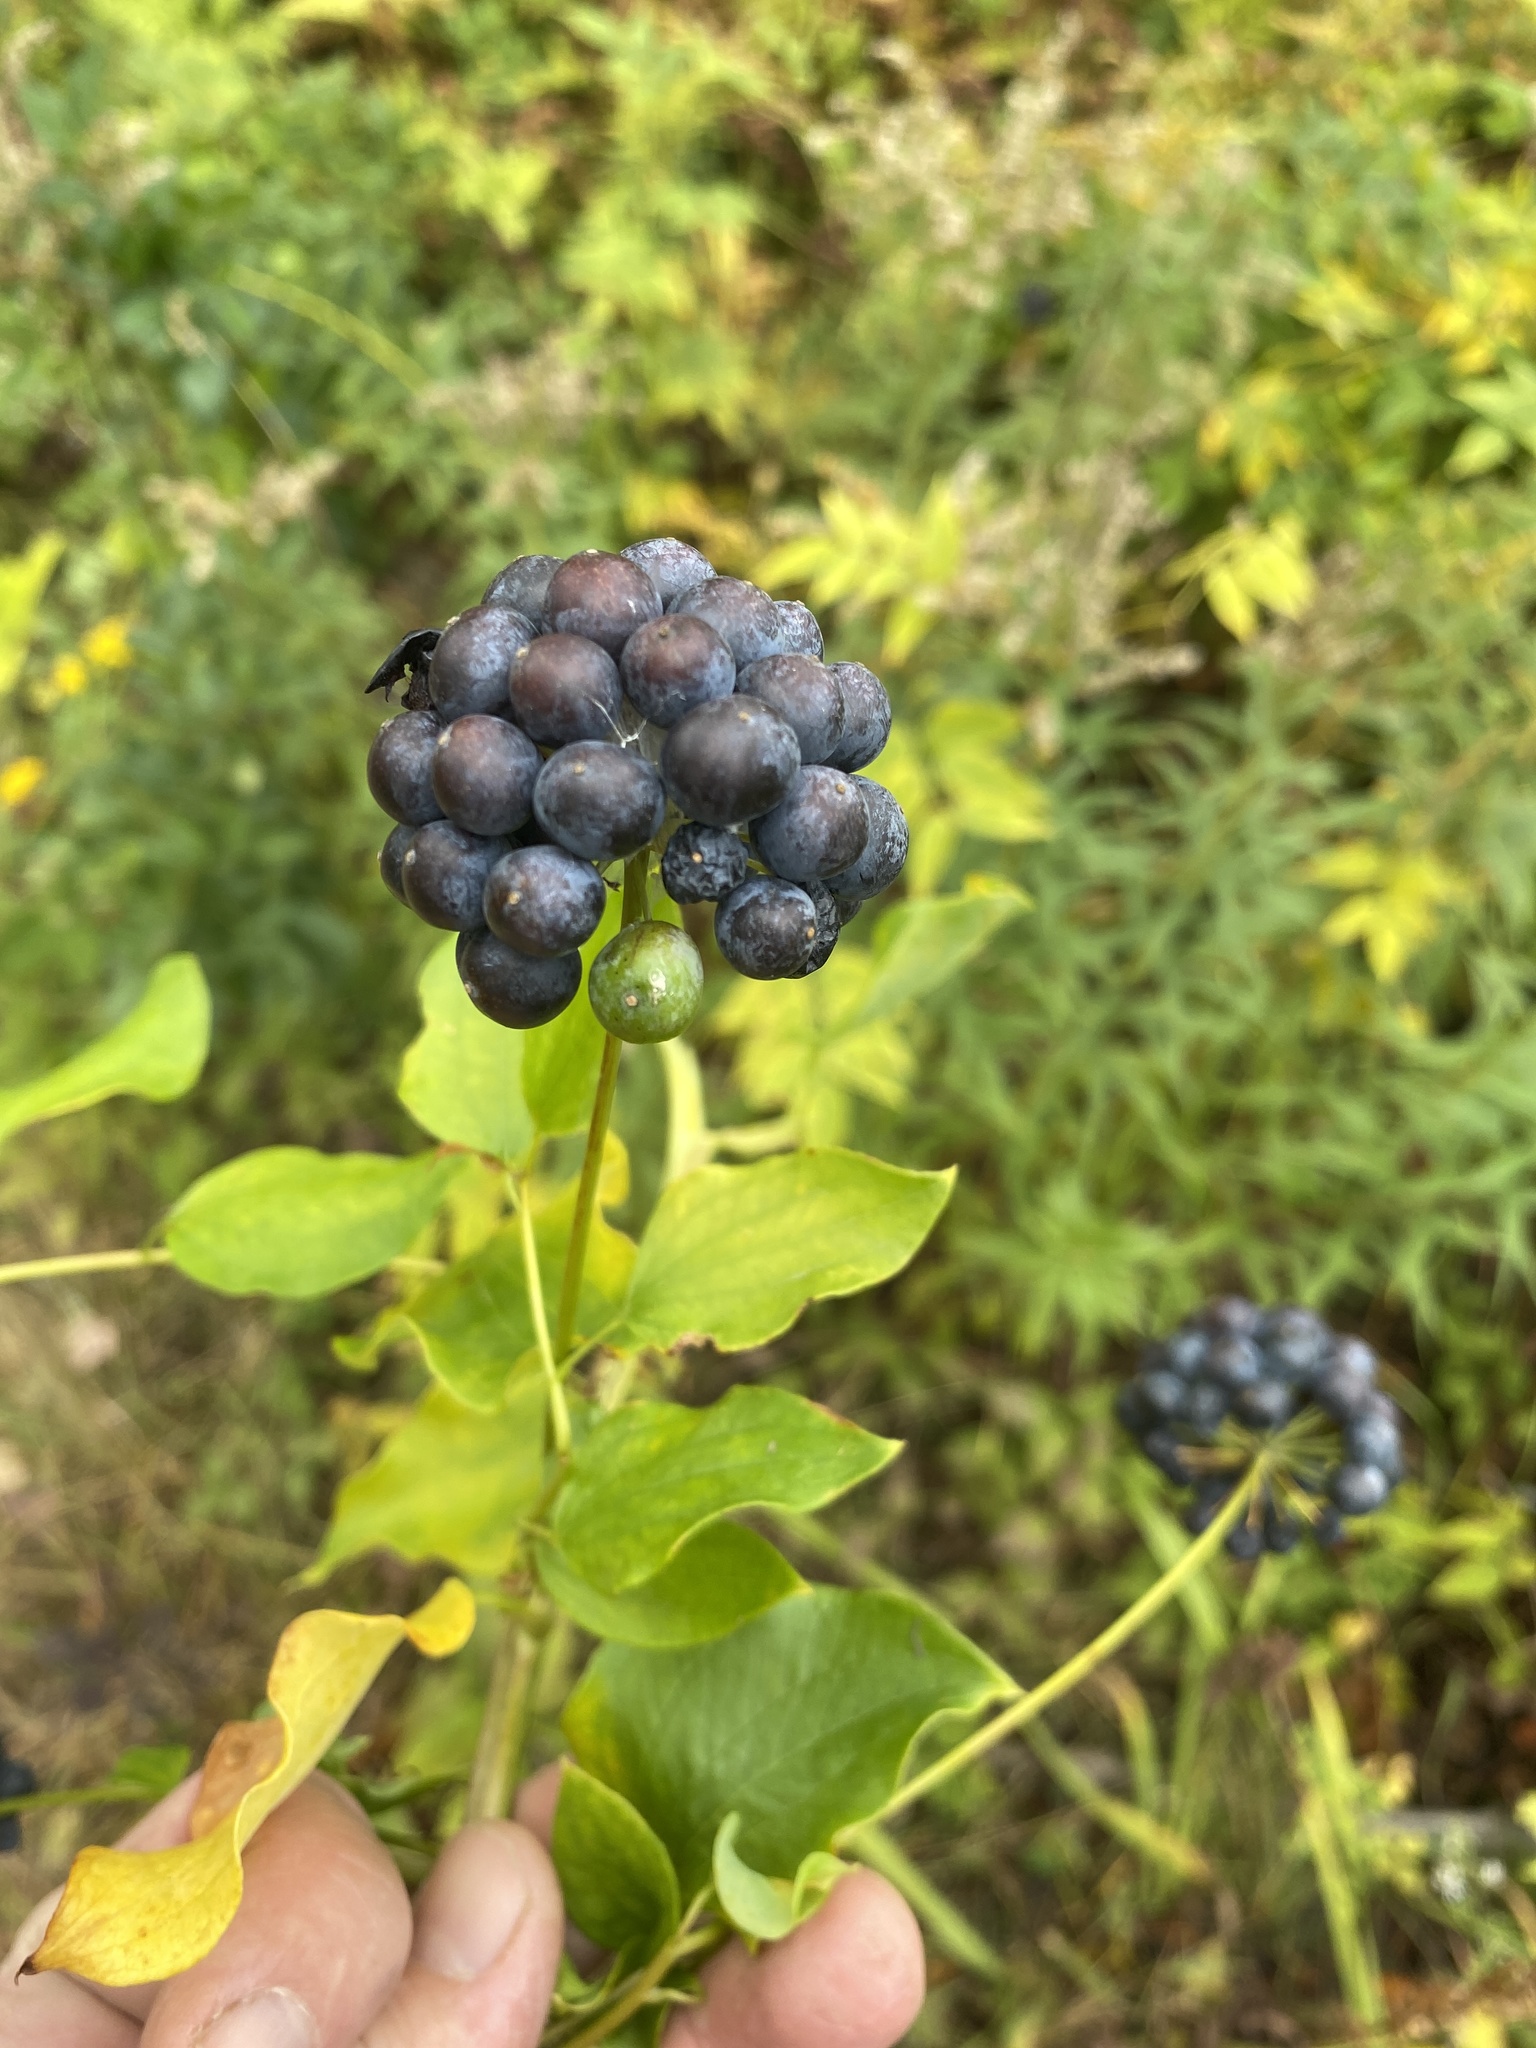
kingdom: Plantae
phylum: Tracheophyta
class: Liliopsida
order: Liliales
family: Smilacaceae
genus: Smilax
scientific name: Smilax herbacea
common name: Jacob's-ladder
